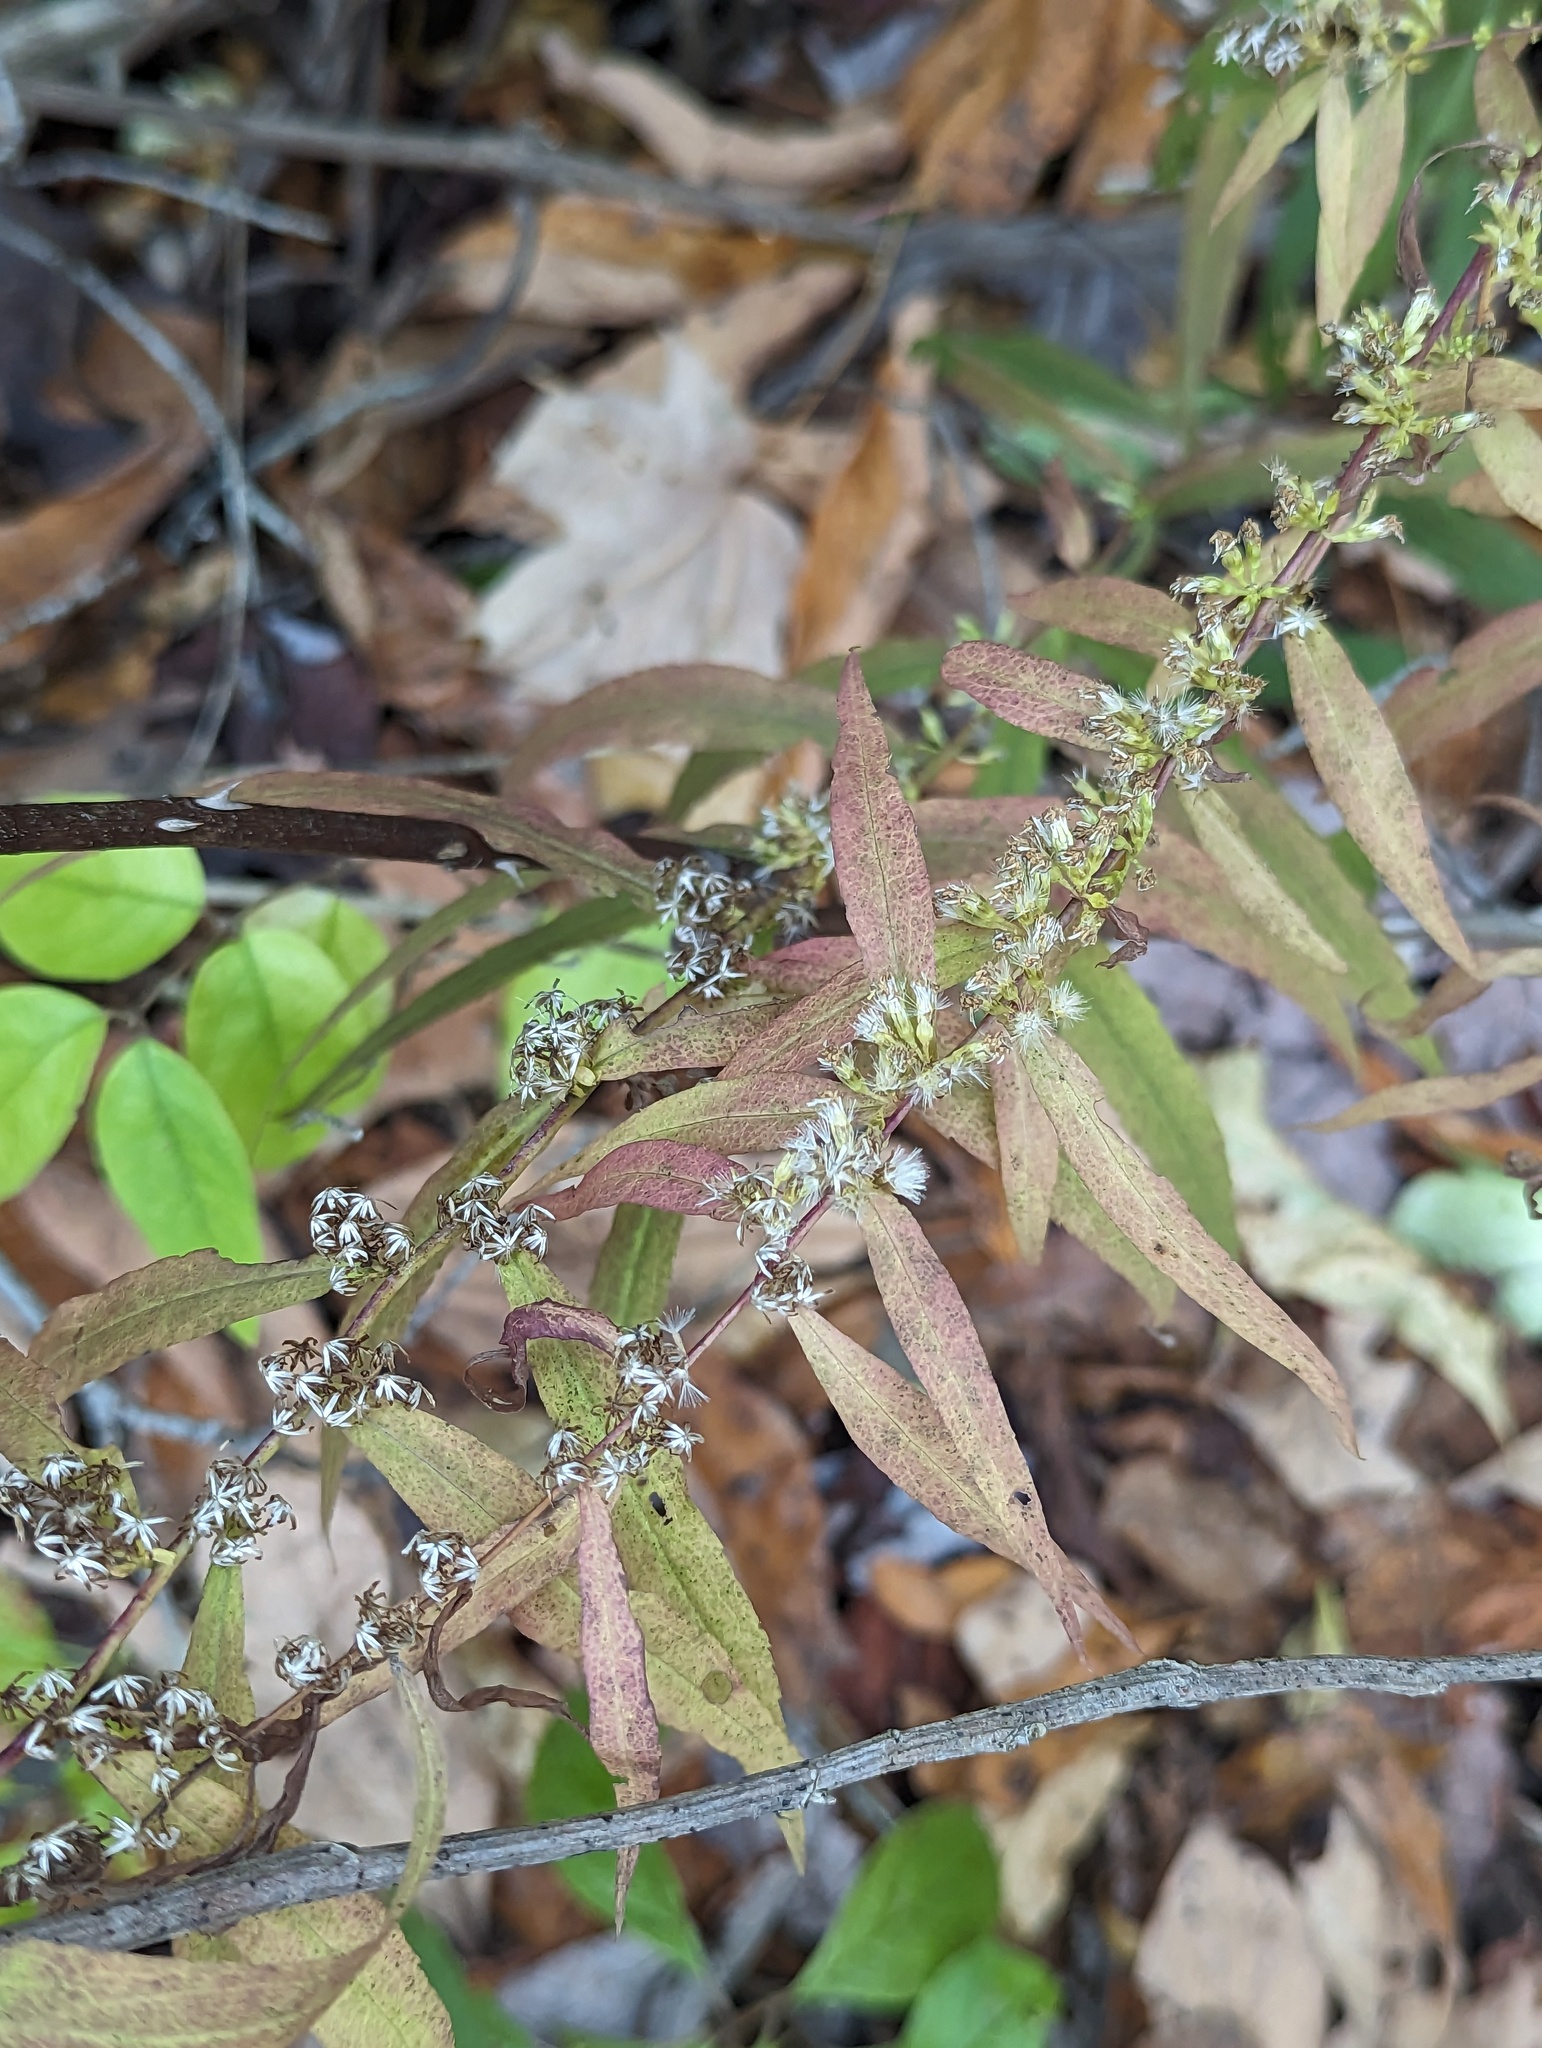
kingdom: Plantae
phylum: Tracheophyta
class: Magnoliopsida
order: Asterales
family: Asteraceae
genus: Solidago
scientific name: Solidago caesia
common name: Woodland goldenrod
